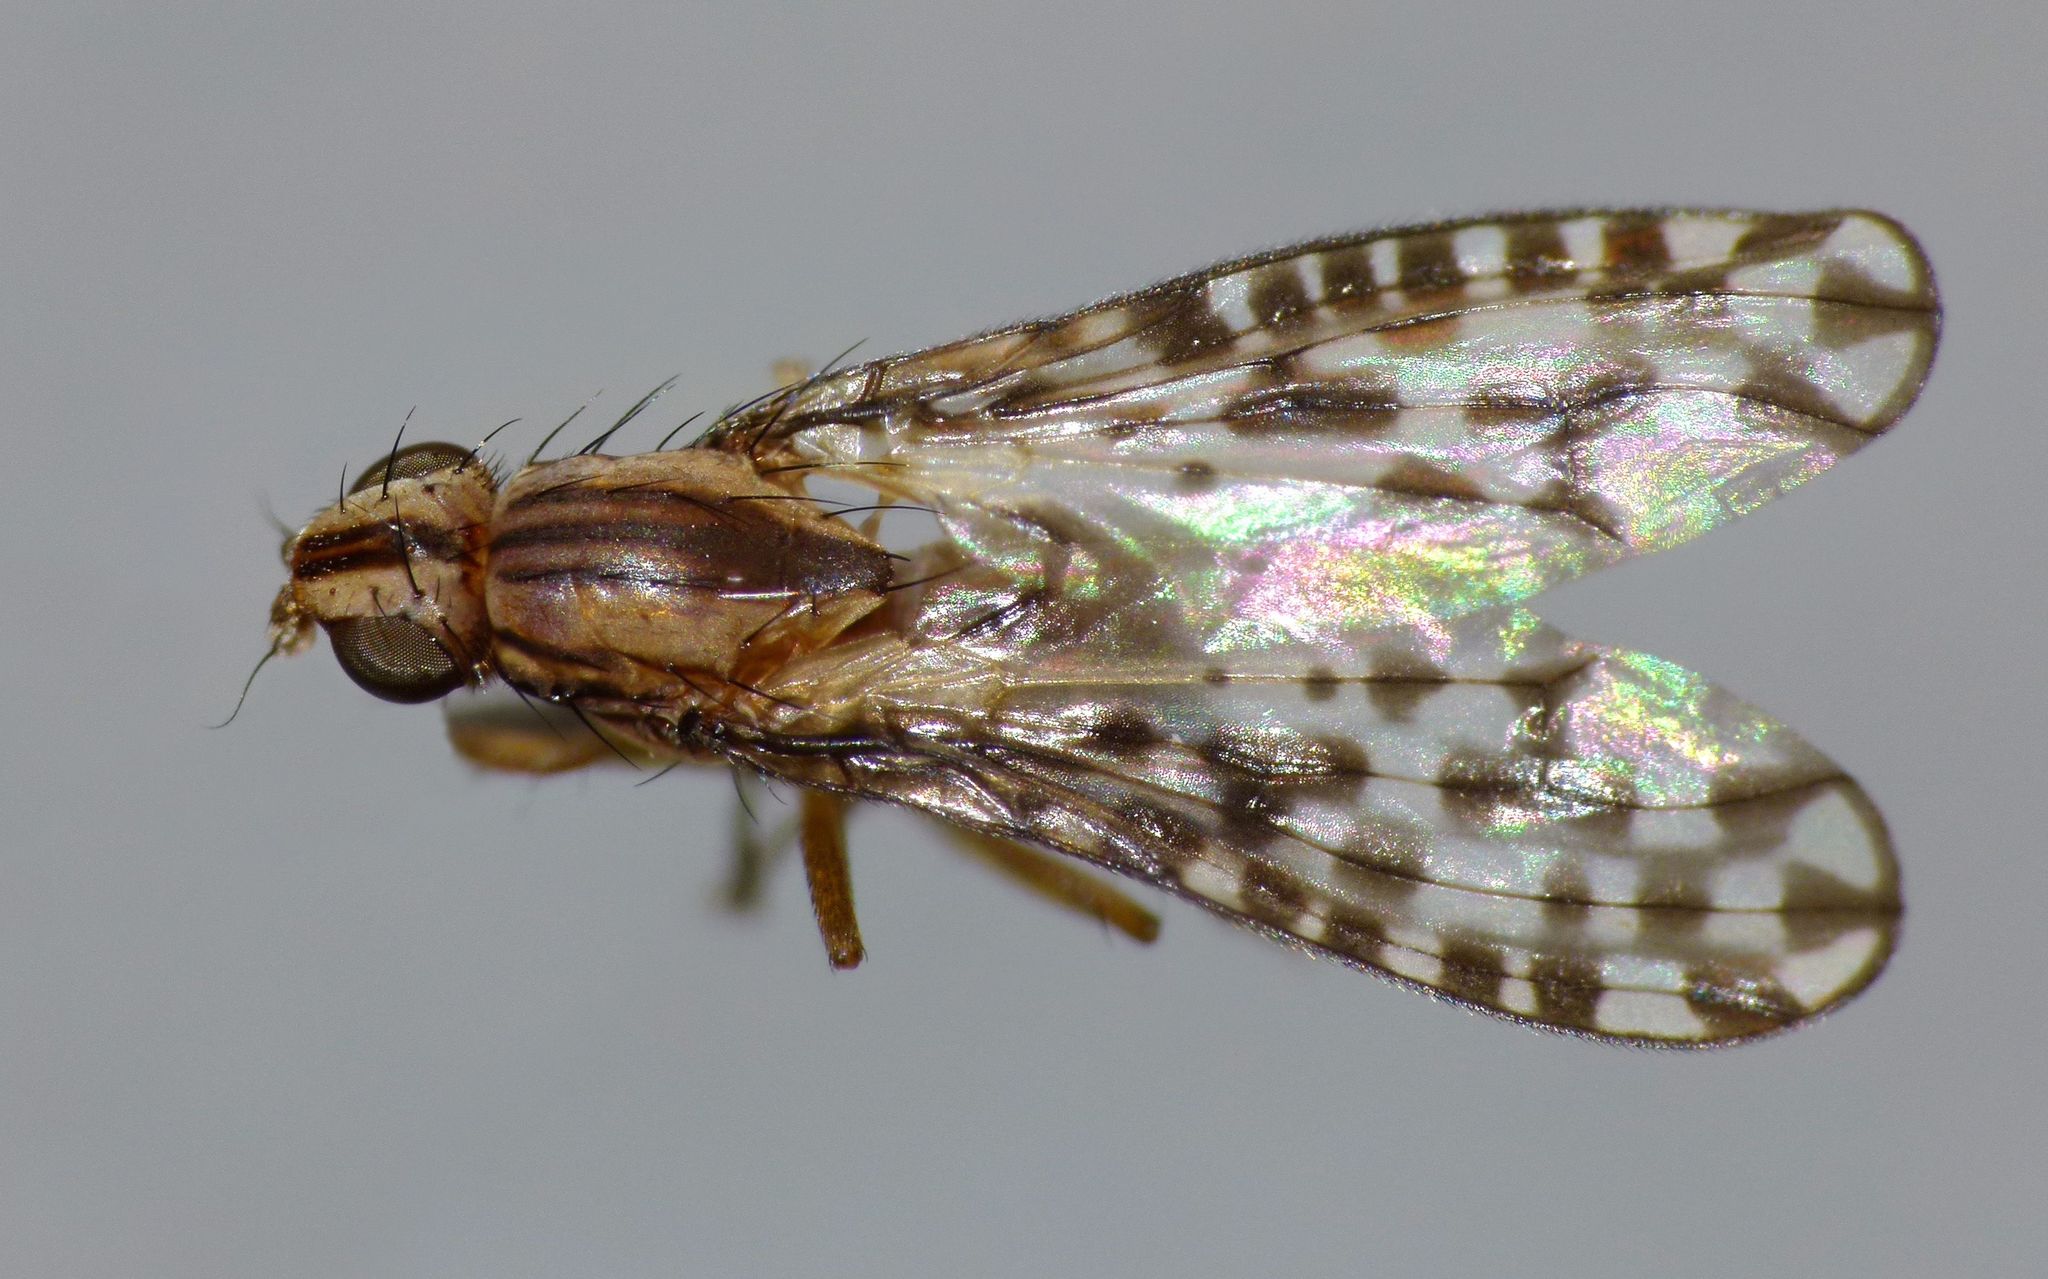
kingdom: Animalia
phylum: Arthropoda
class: Insecta
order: Diptera
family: Huttoninidae
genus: Huttonina
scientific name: Huttonina scutellaris
